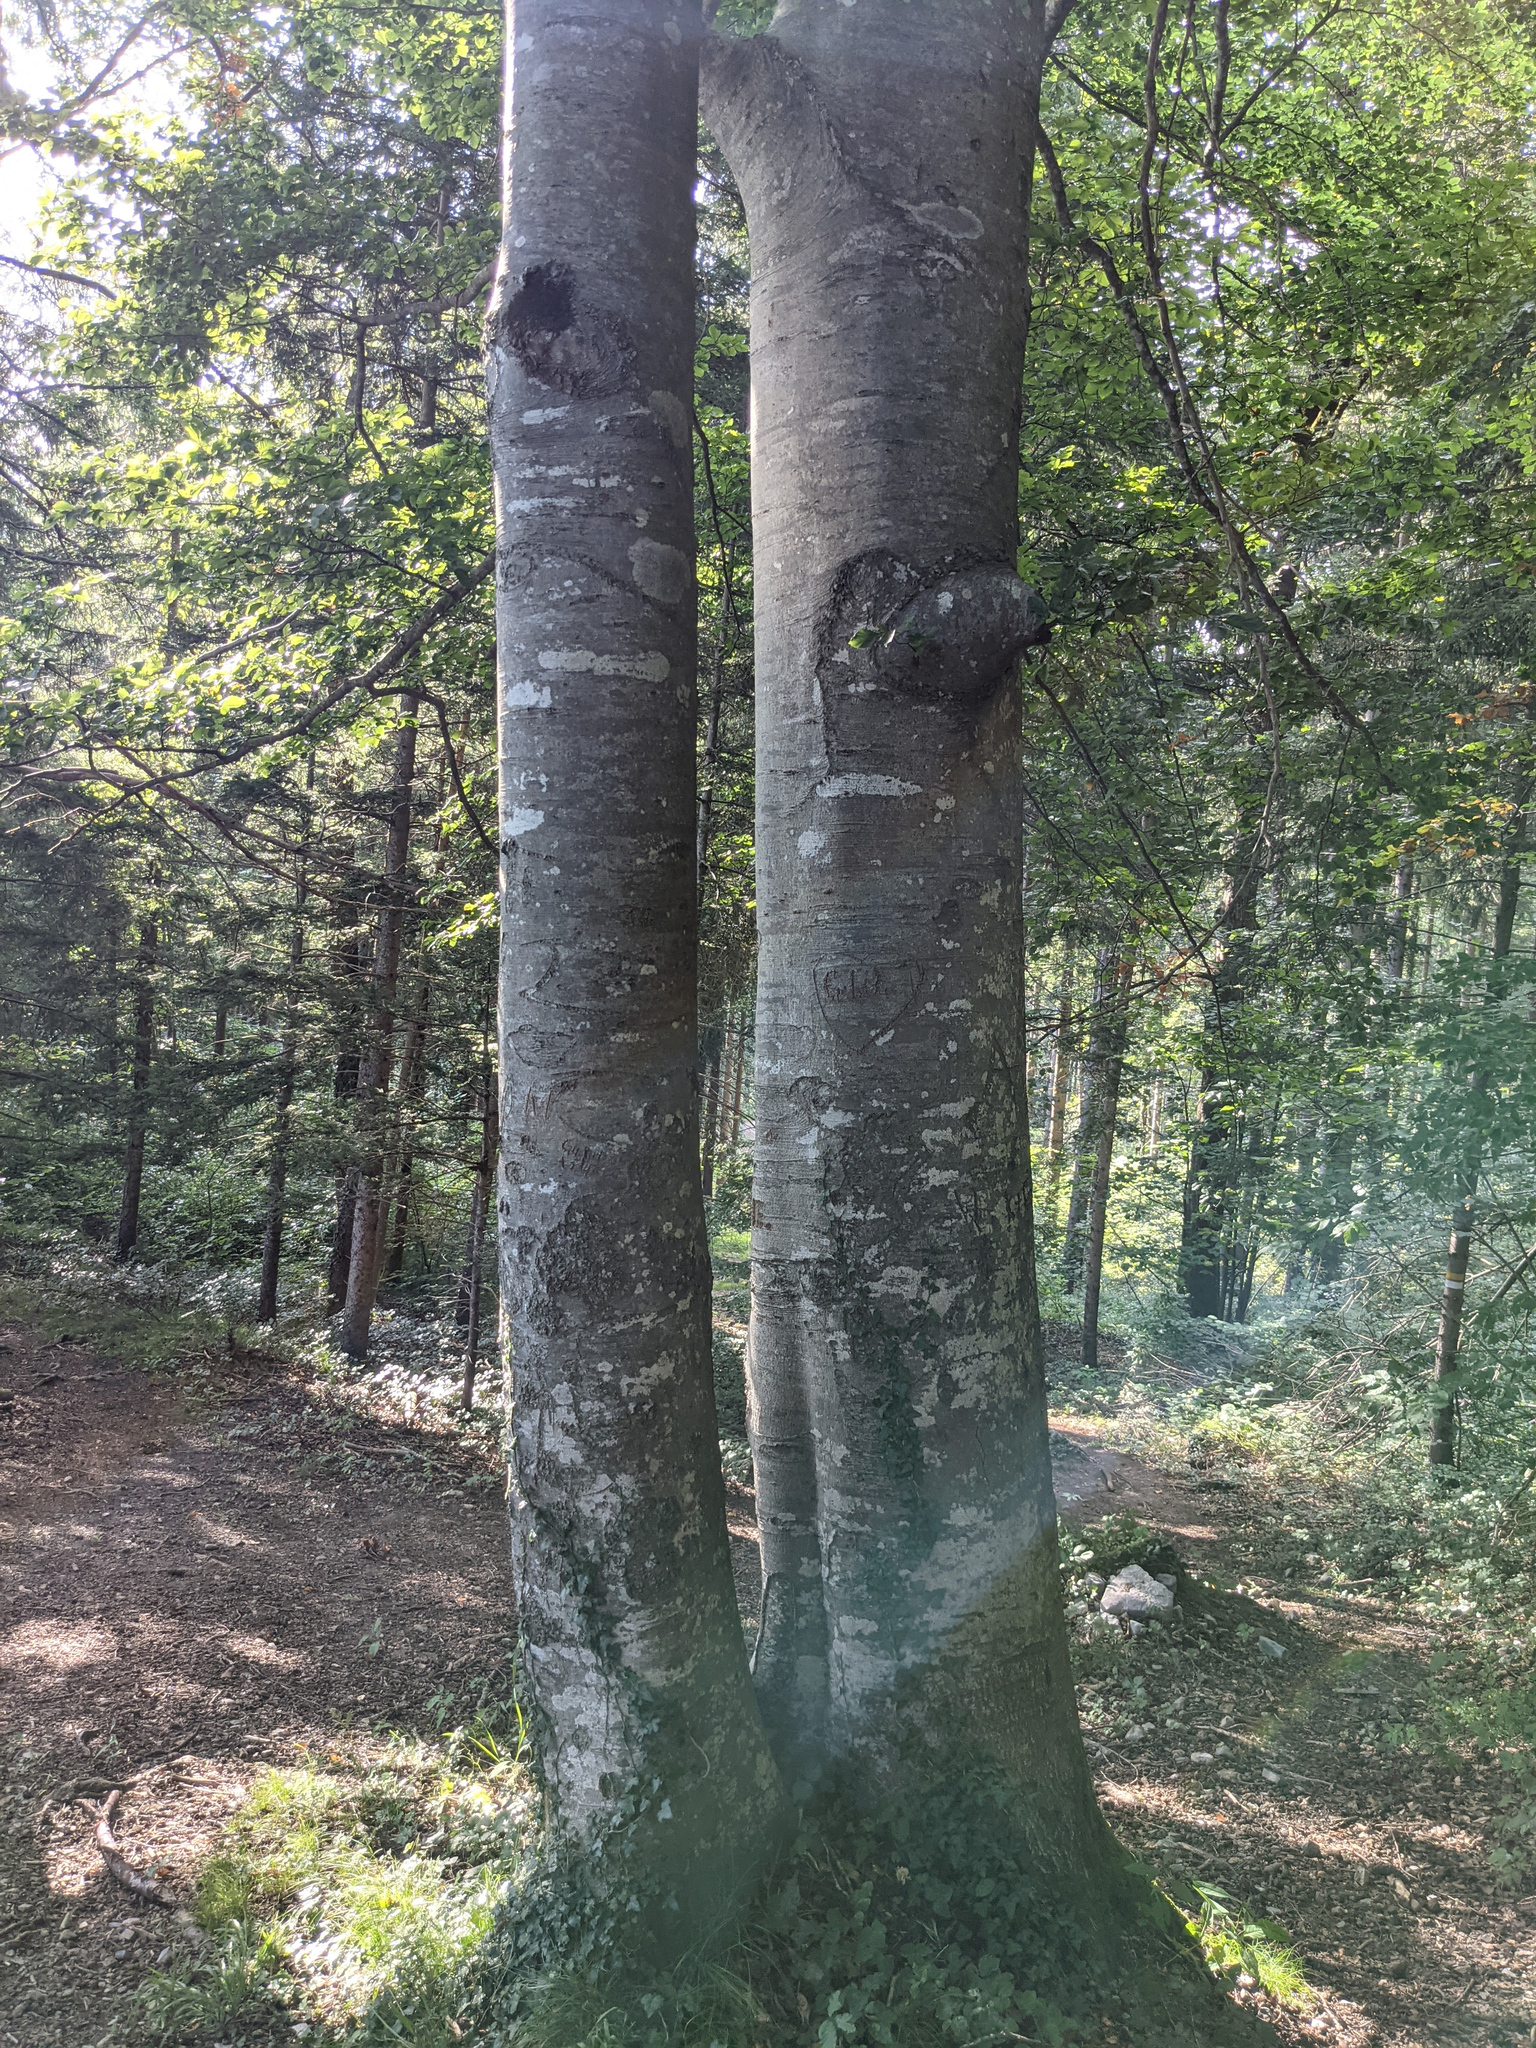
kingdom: Plantae
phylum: Tracheophyta
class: Magnoliopsida
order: Fagales
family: Fagaceae
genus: Fagus
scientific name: Fagus sylvatica
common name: Beech
